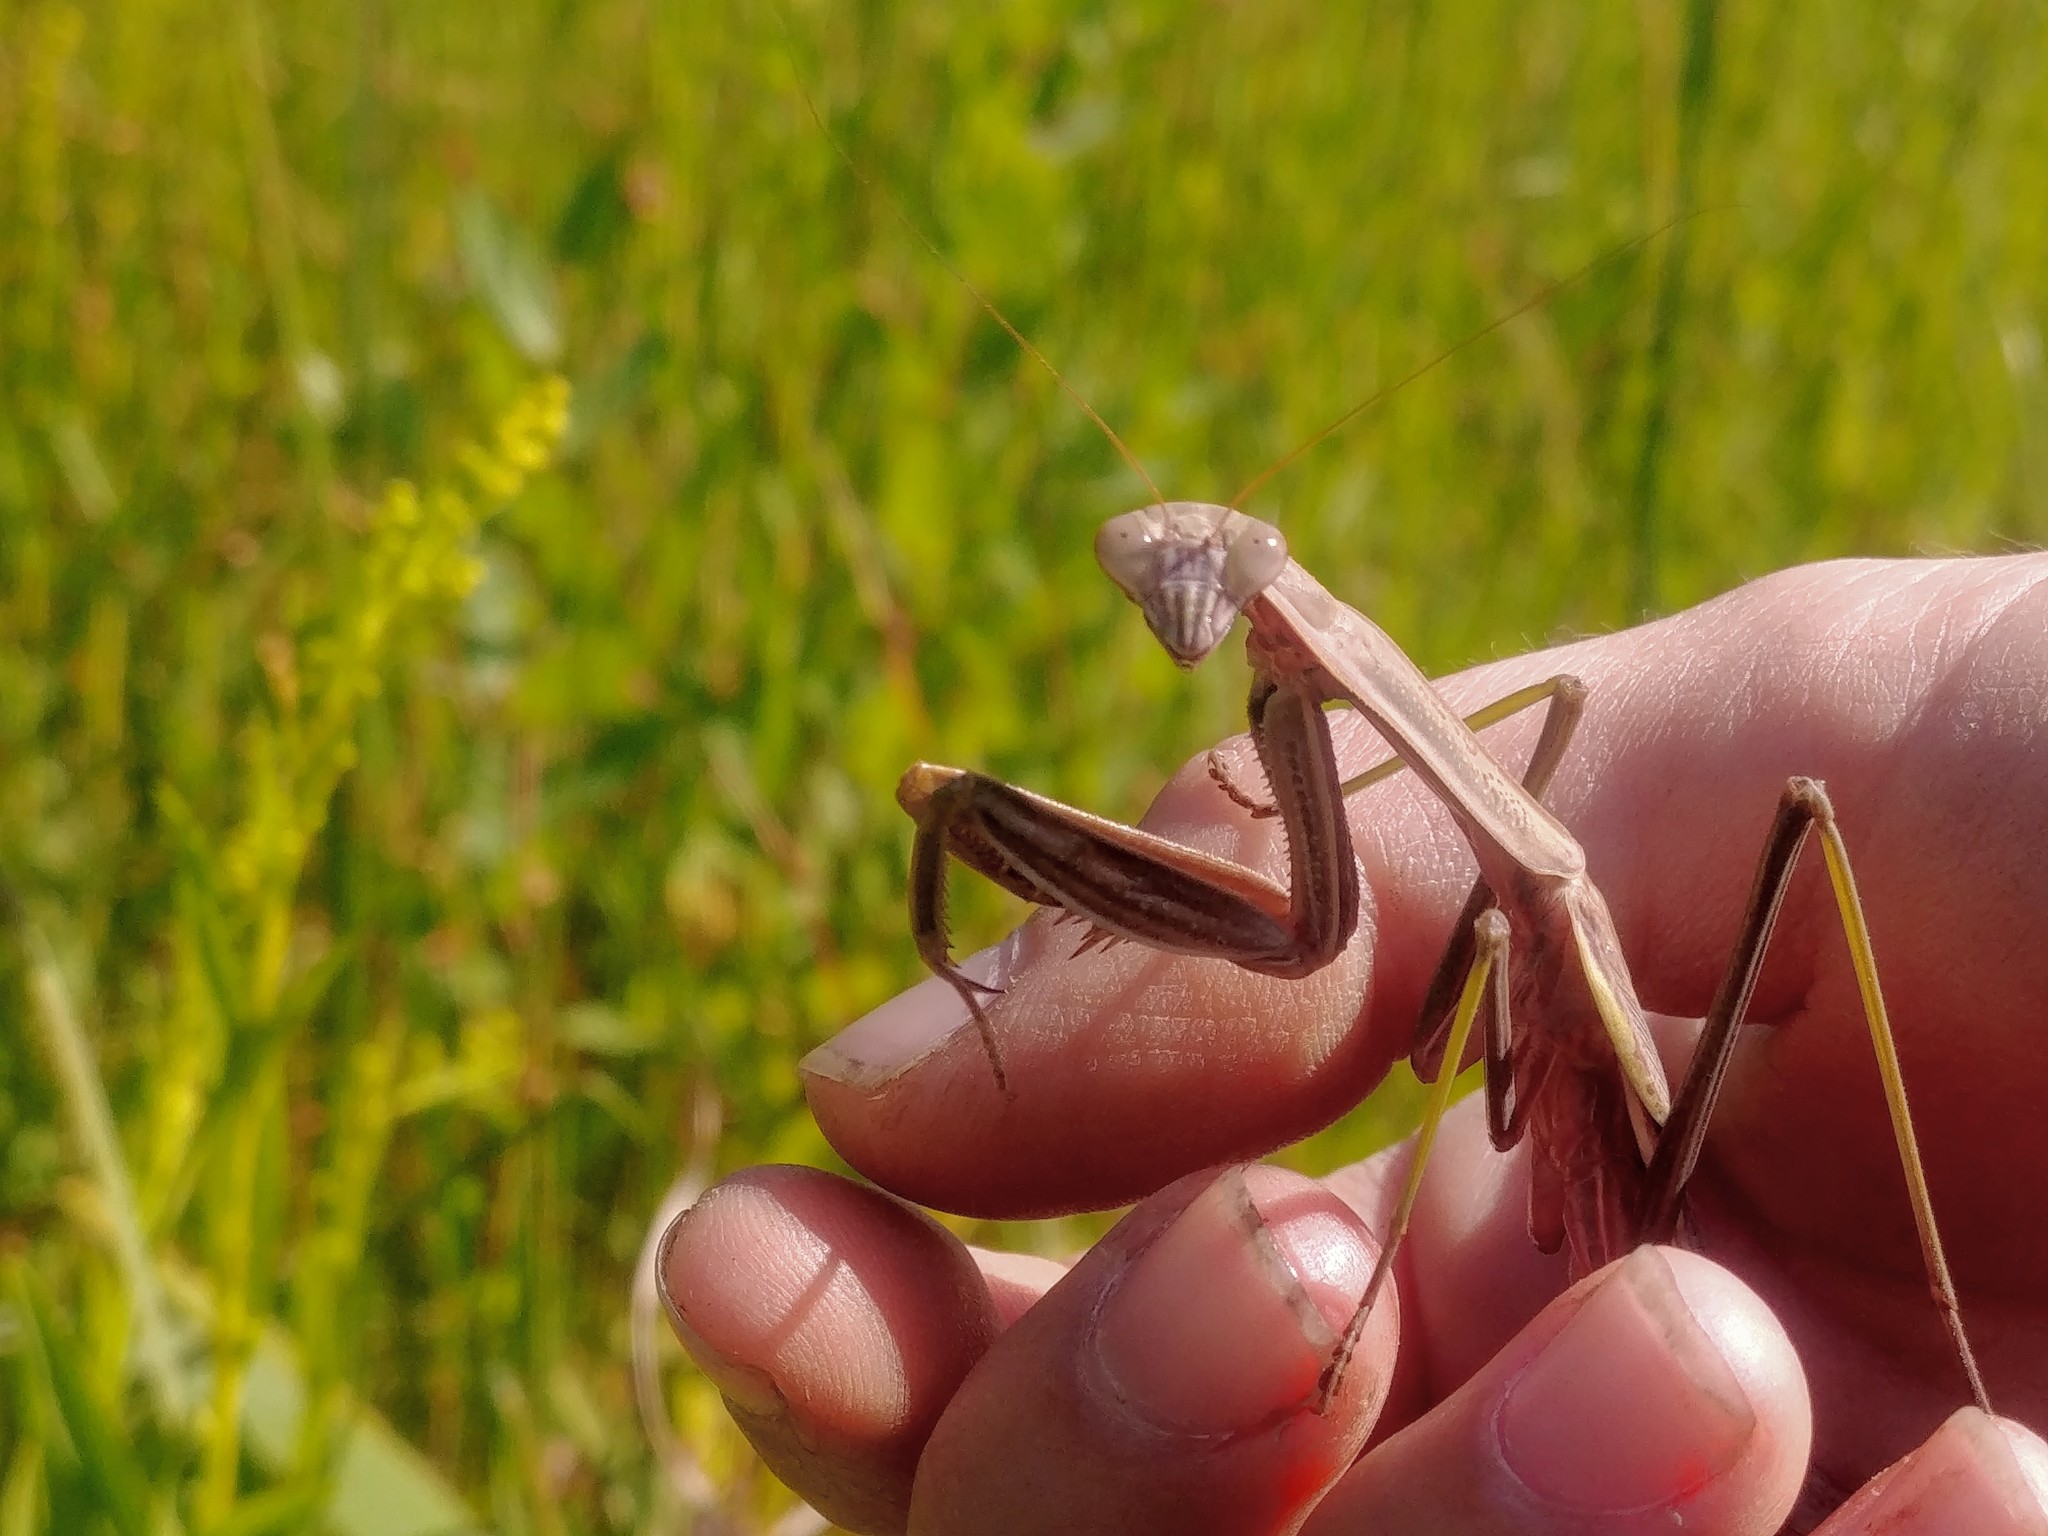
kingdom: Animalia
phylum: Arthropoda
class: Insecta
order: Mantodea
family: Mantidae
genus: Tenodera
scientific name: Tenodera sinensis
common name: Chinese mantis
